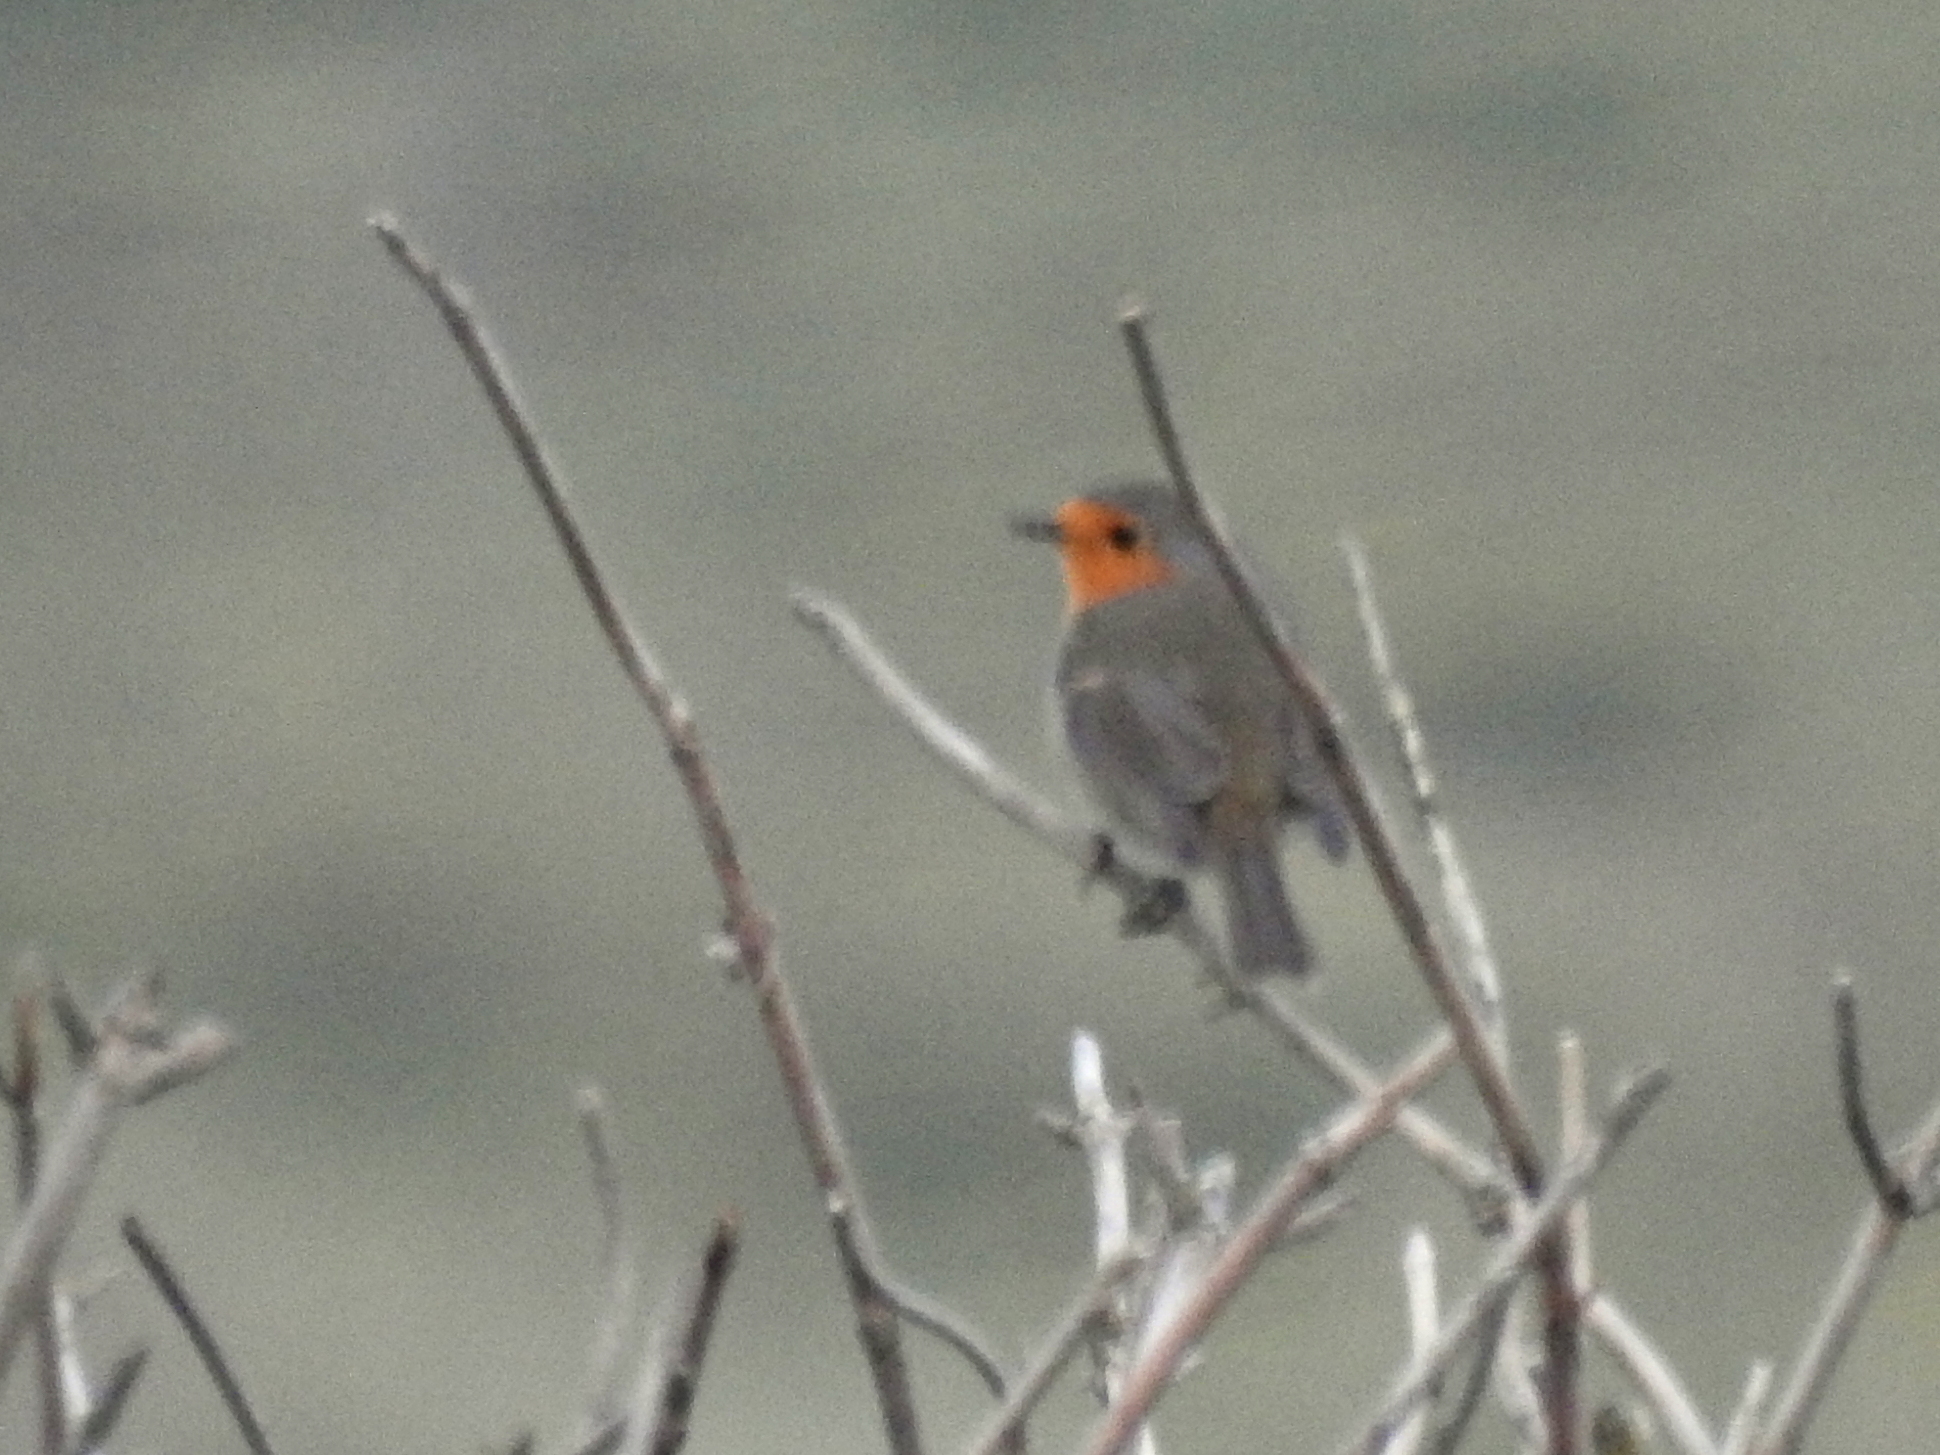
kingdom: Animalia
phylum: Chordata
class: Aves
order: Passeriformes
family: Muscicapidae
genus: Erithacus
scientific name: Erithacus rubecula
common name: European robin
